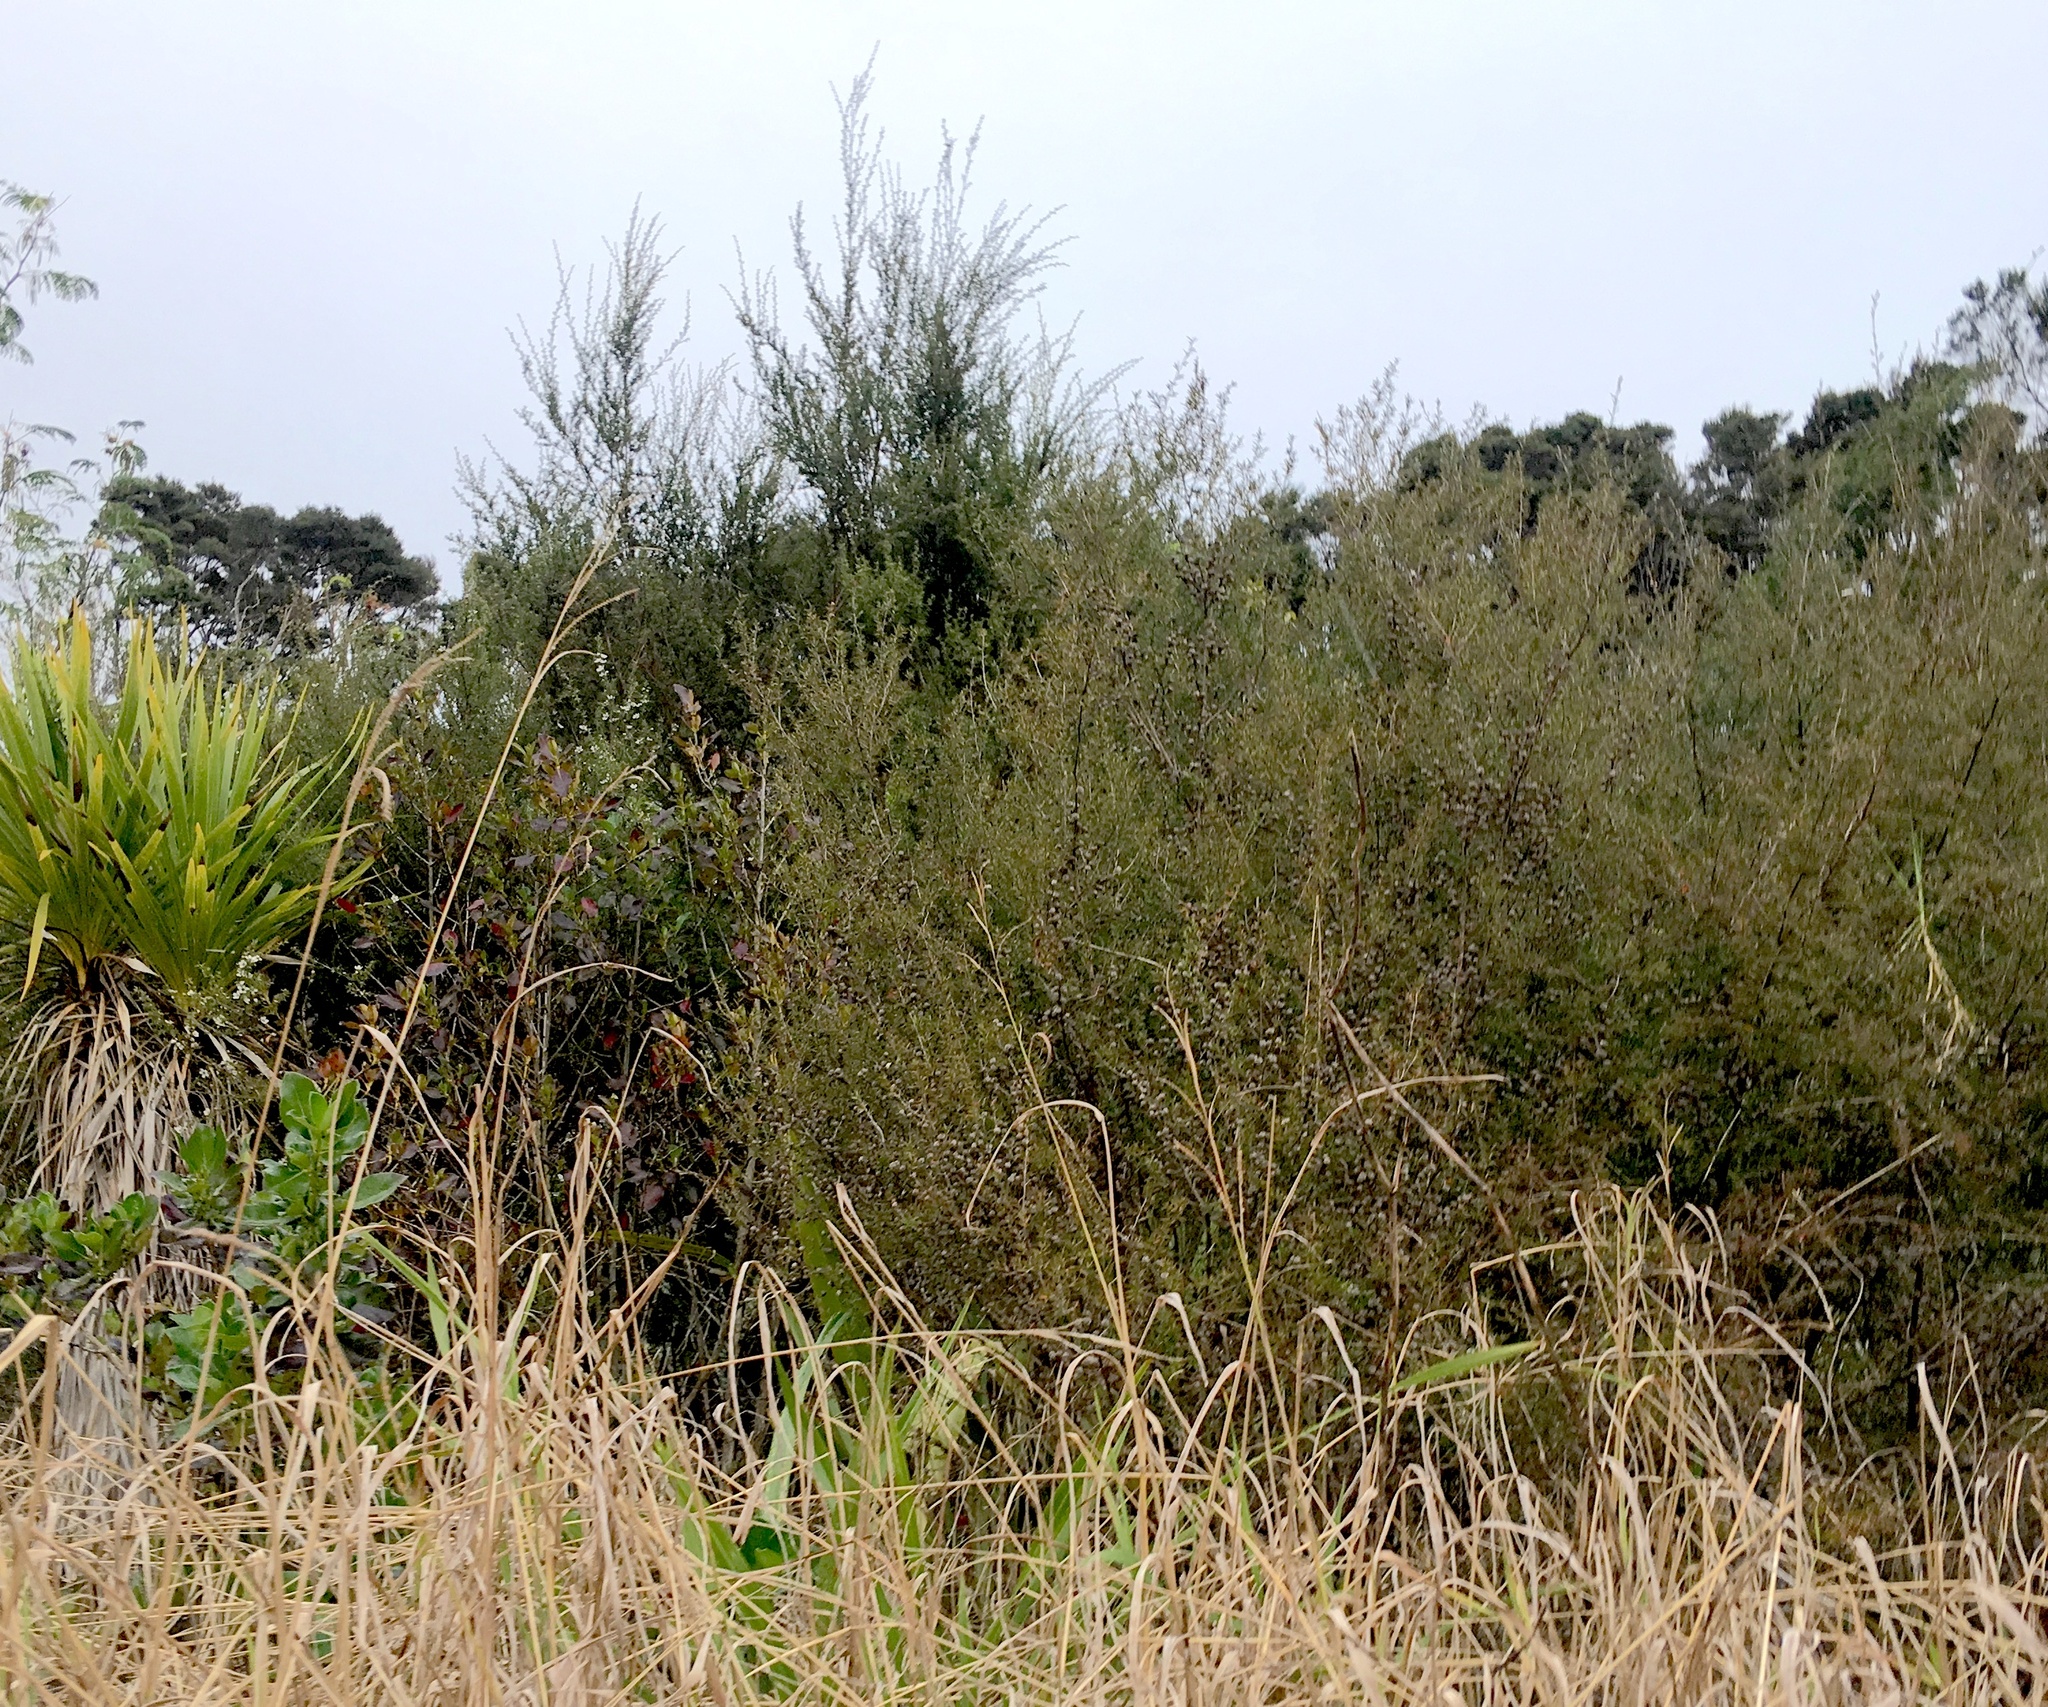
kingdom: Plantae
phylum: Tracheophyta
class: Magnoliopsida
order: Myrtales
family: Myrtaceae
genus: Leptospermum
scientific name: Leptospermum scoparium
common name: Broom tea-tree
